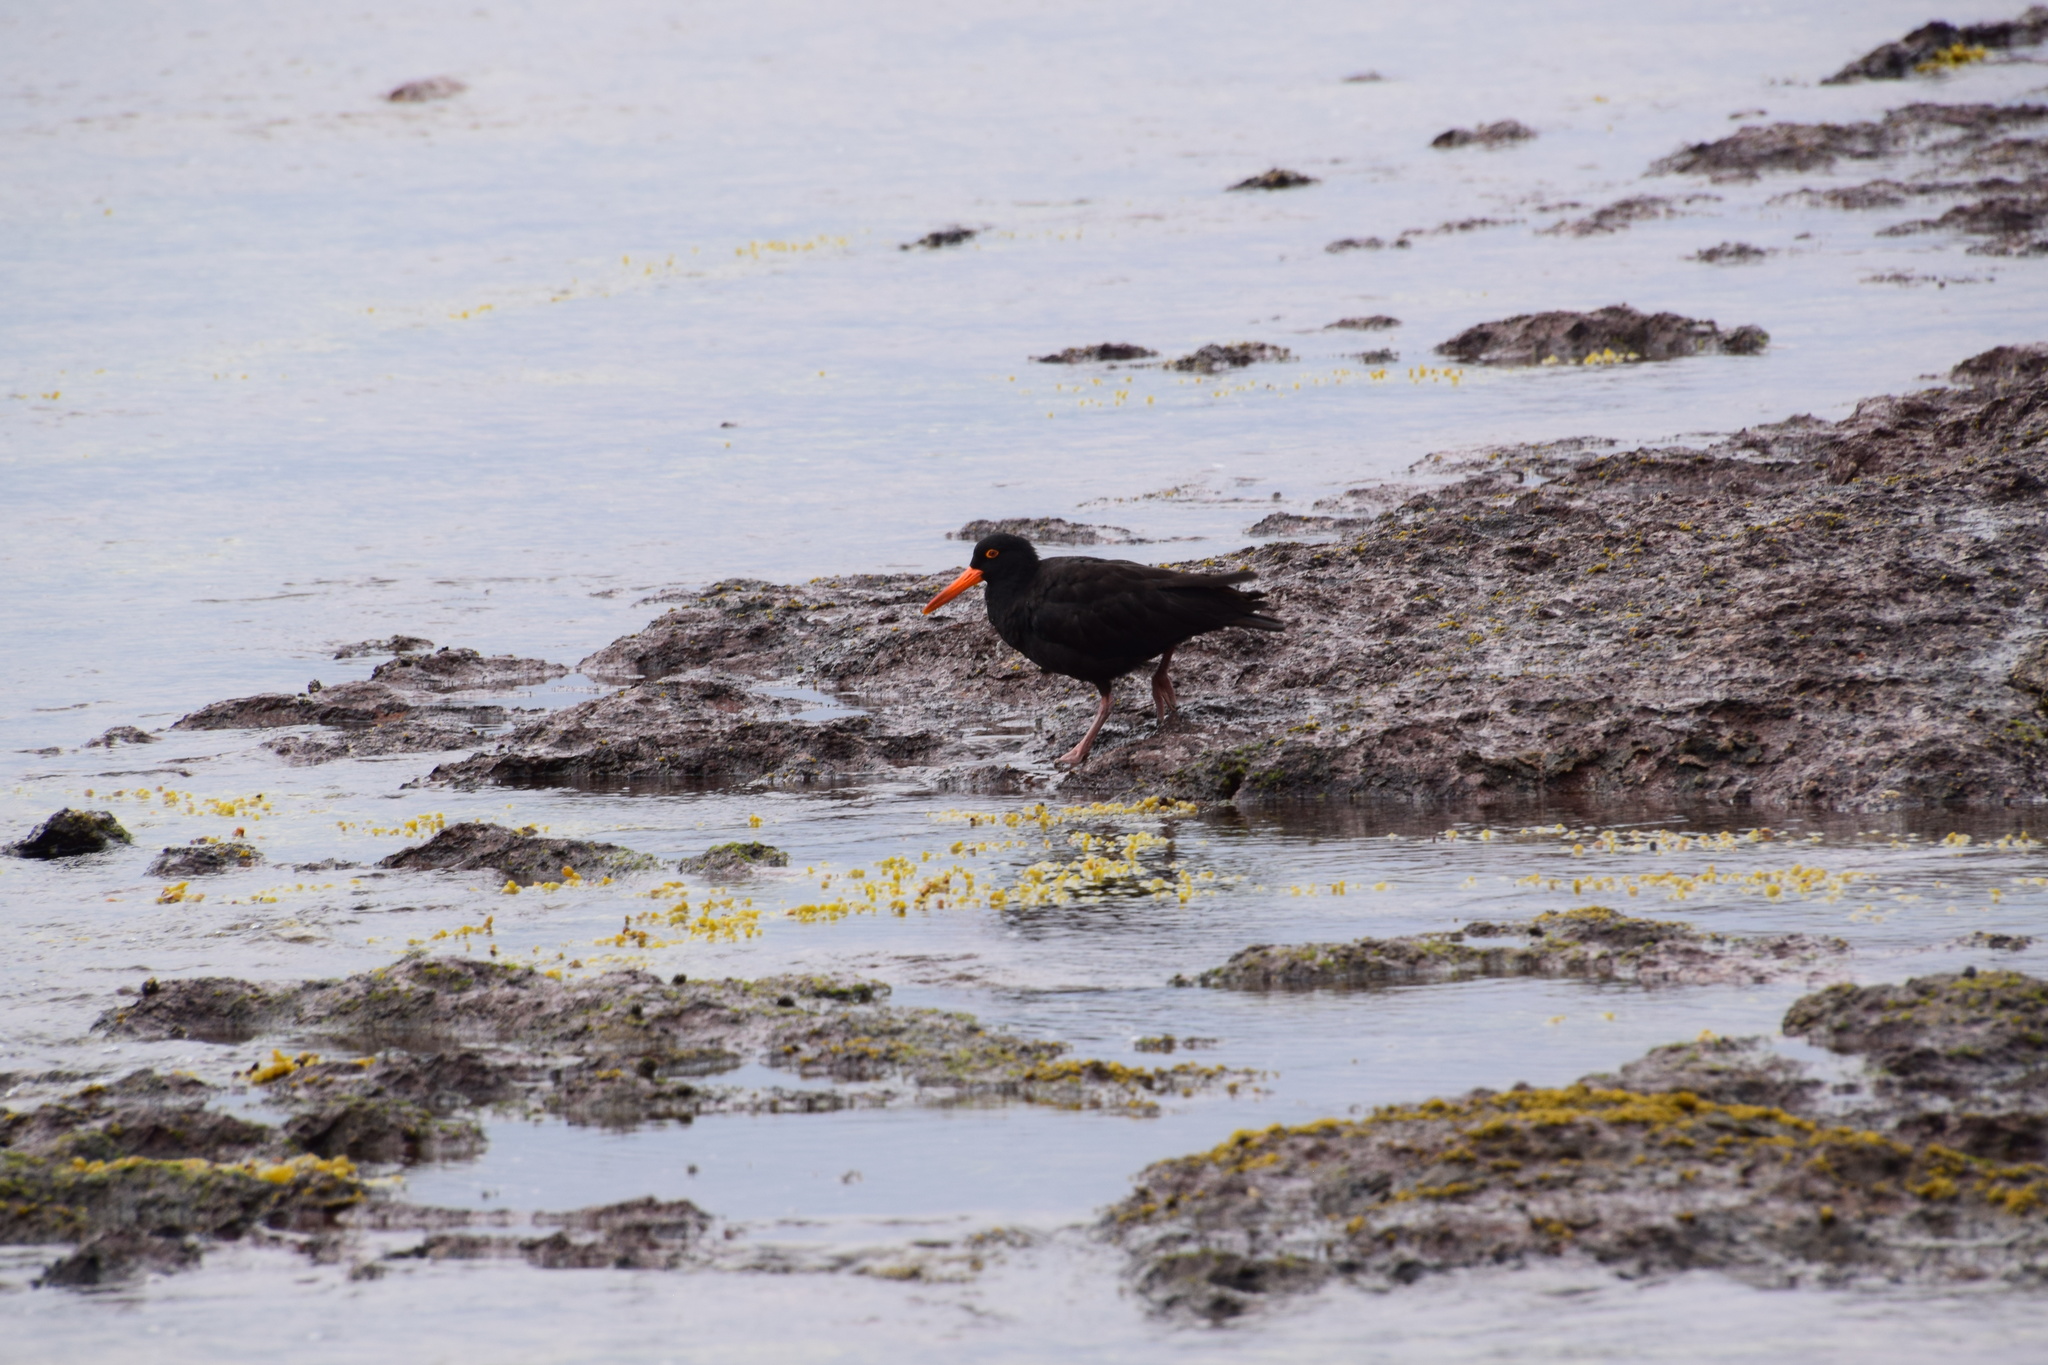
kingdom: Animalia
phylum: Chordata
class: Aves
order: Charadriiformes
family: Haematopodidae
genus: Haematopus
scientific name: Haematopus fuliginosus
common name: Sooty oystercatcher
